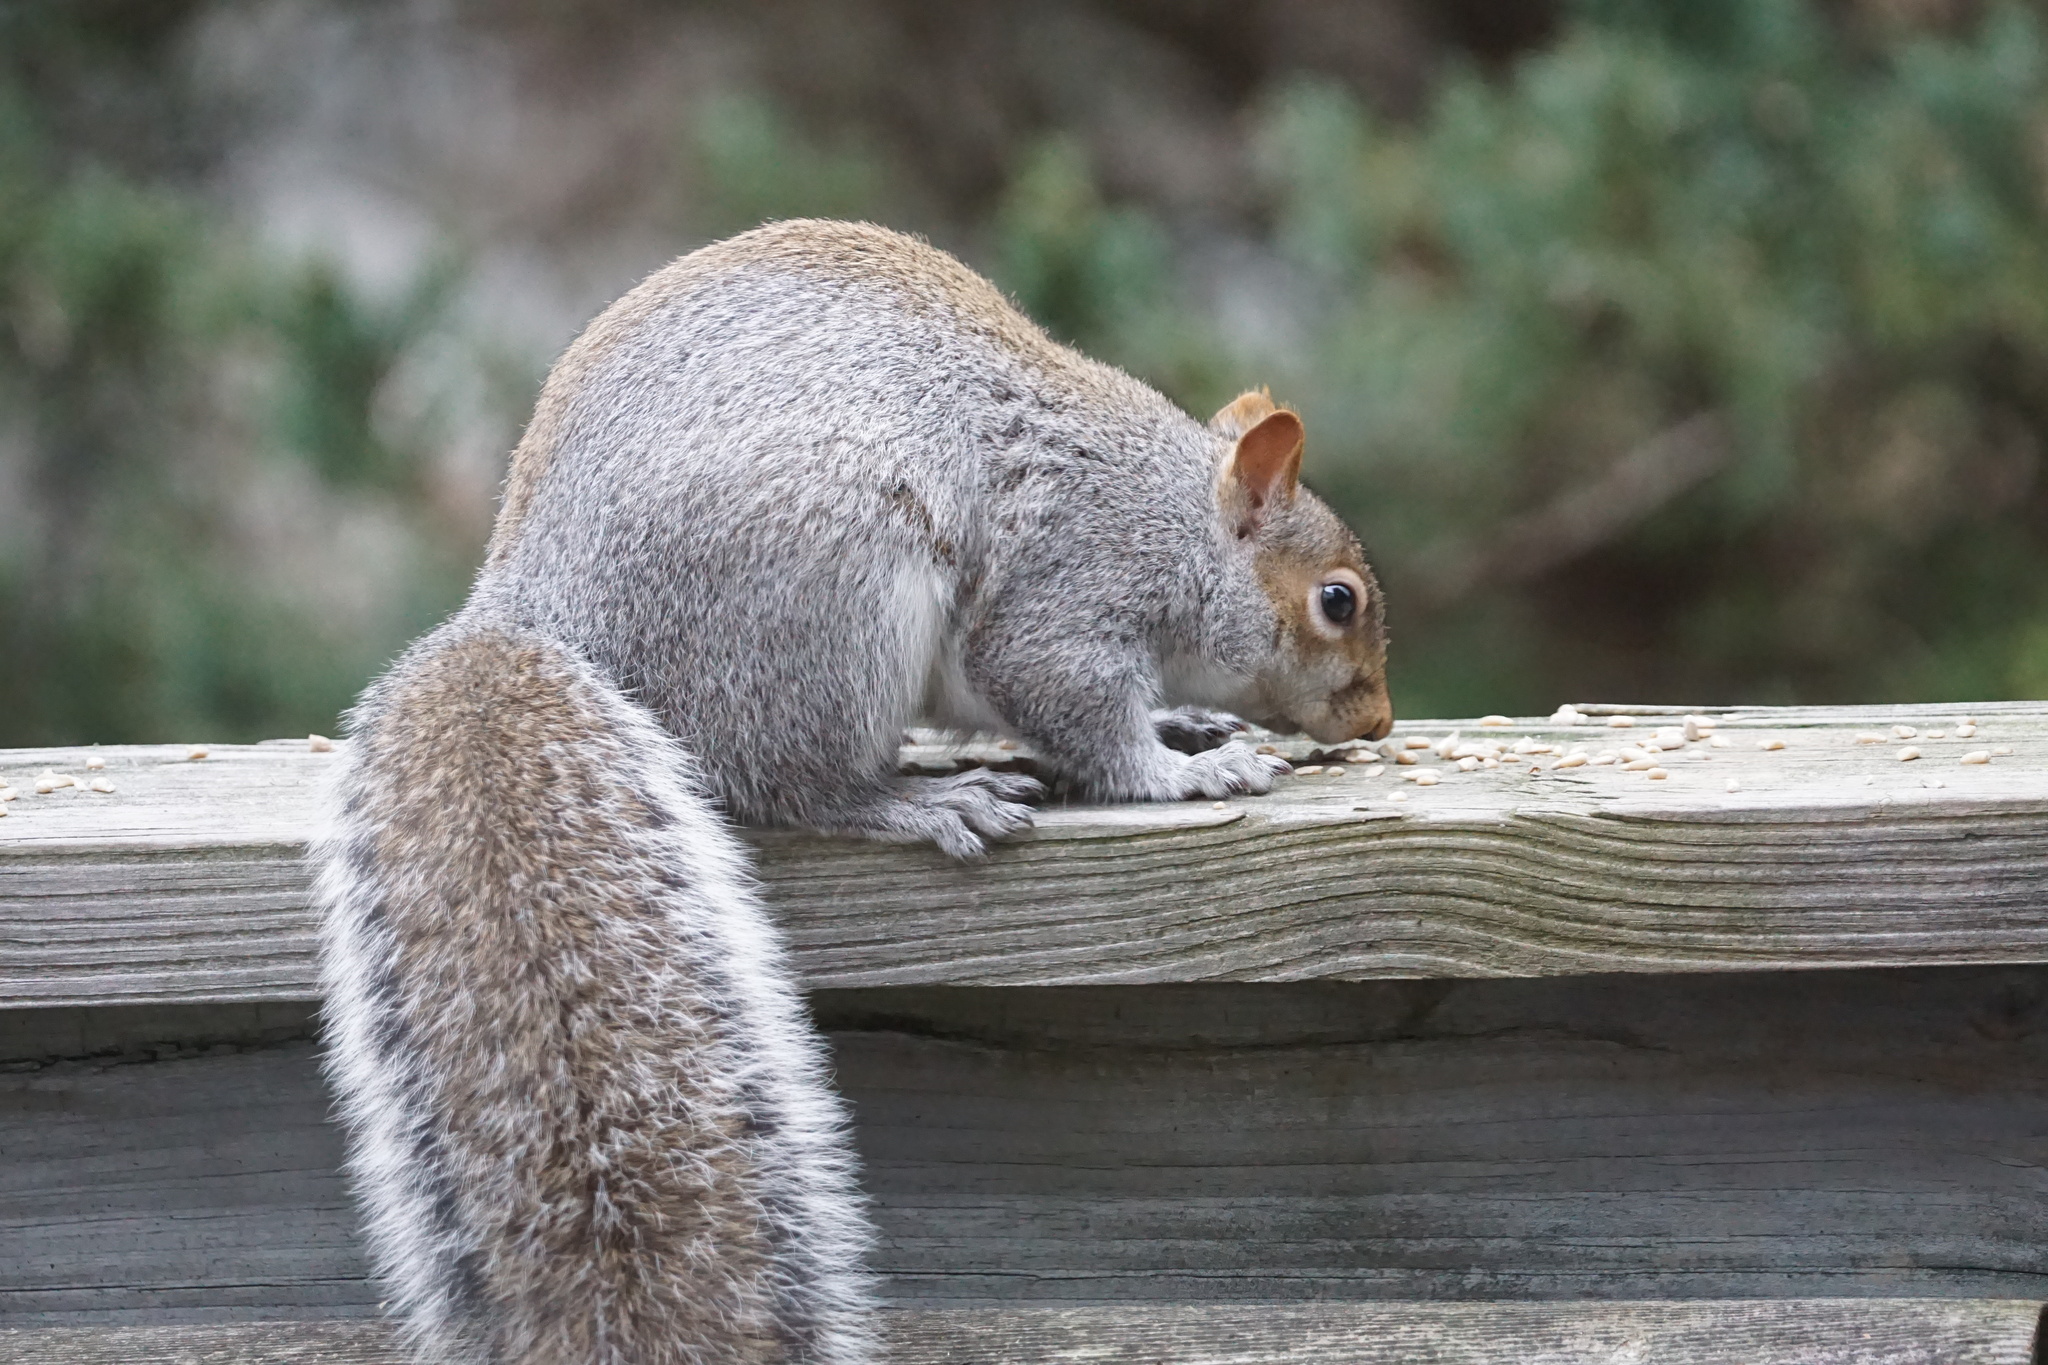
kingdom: Animalia
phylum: Chordata
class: Mammalia
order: Rodentia
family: Sciuridae
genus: Sciurus
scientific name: Sciurus carolinensis
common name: Eastern gray squirrel
